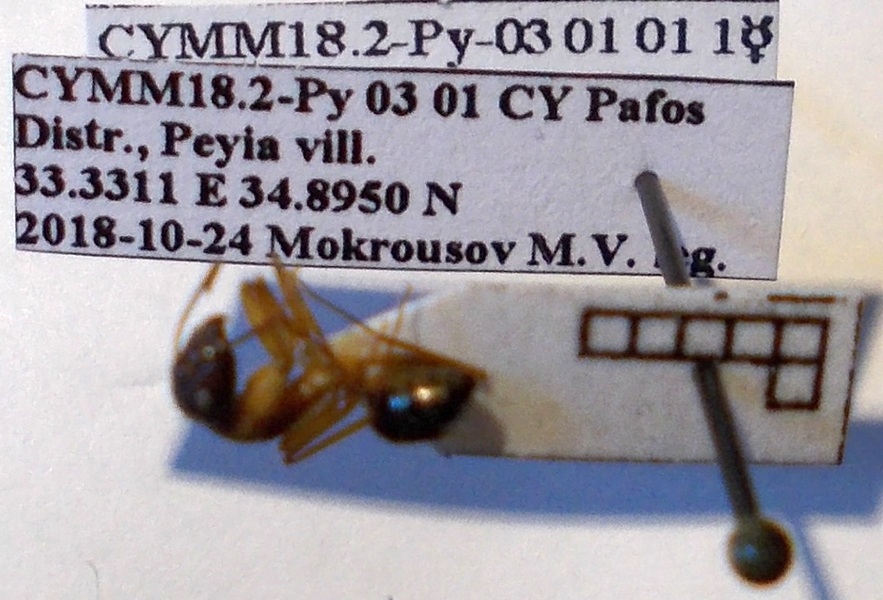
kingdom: Animalia
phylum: Arthropoda
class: Insecta
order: Hymenoptera
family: Formicidae
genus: Camponotus
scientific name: Camponotus baldaccii
